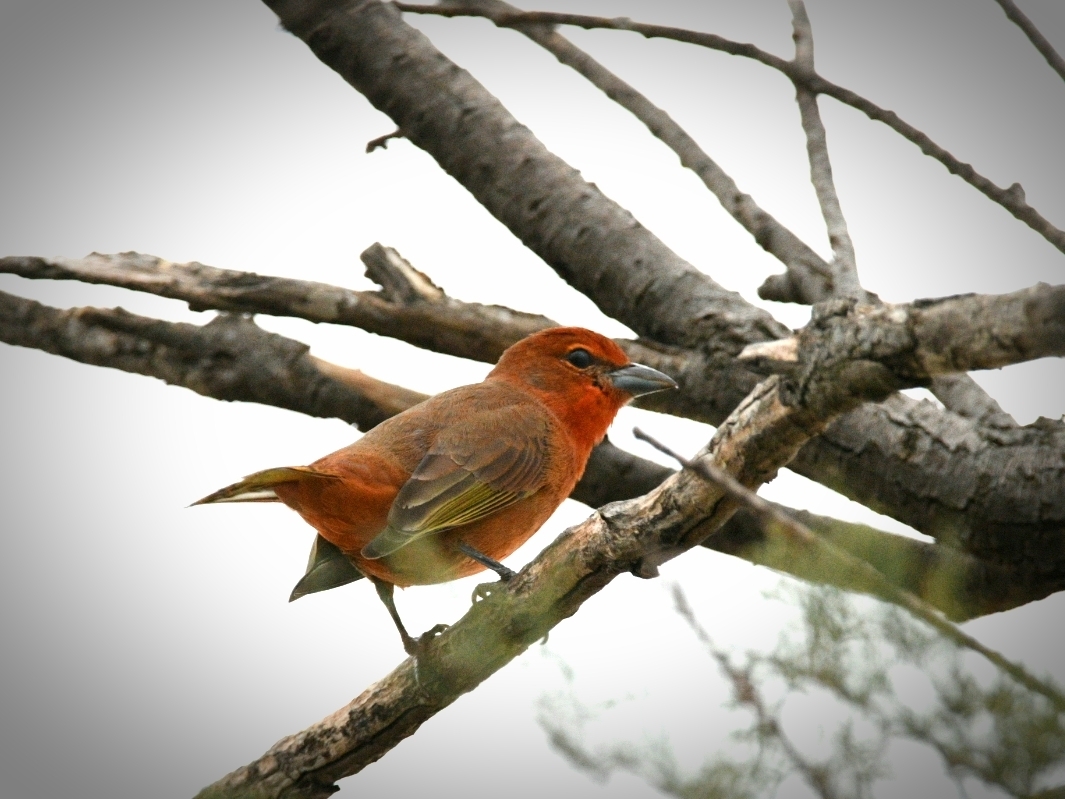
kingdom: Animalia
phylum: Chordata
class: Aves
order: Passeriformes
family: Cardinalidae
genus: Piranga
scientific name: Piranga flava
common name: Red tanager
